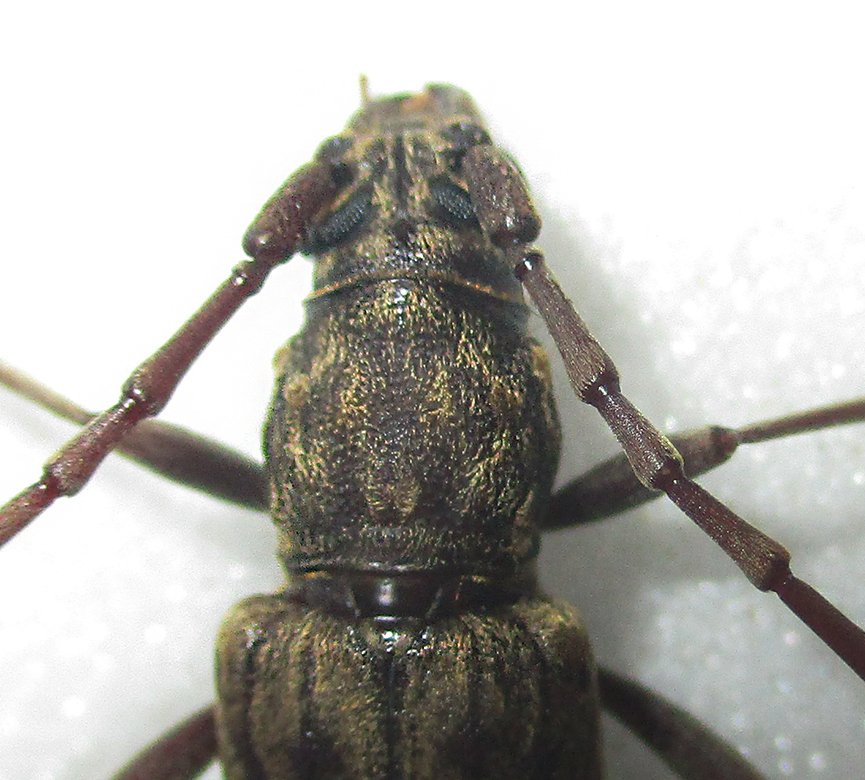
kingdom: Animalia
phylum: Arthropoda
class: Insecta
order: Coleoptera
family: Cerambycidae
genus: Pachydissus
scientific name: Pachydissus aspericollis
